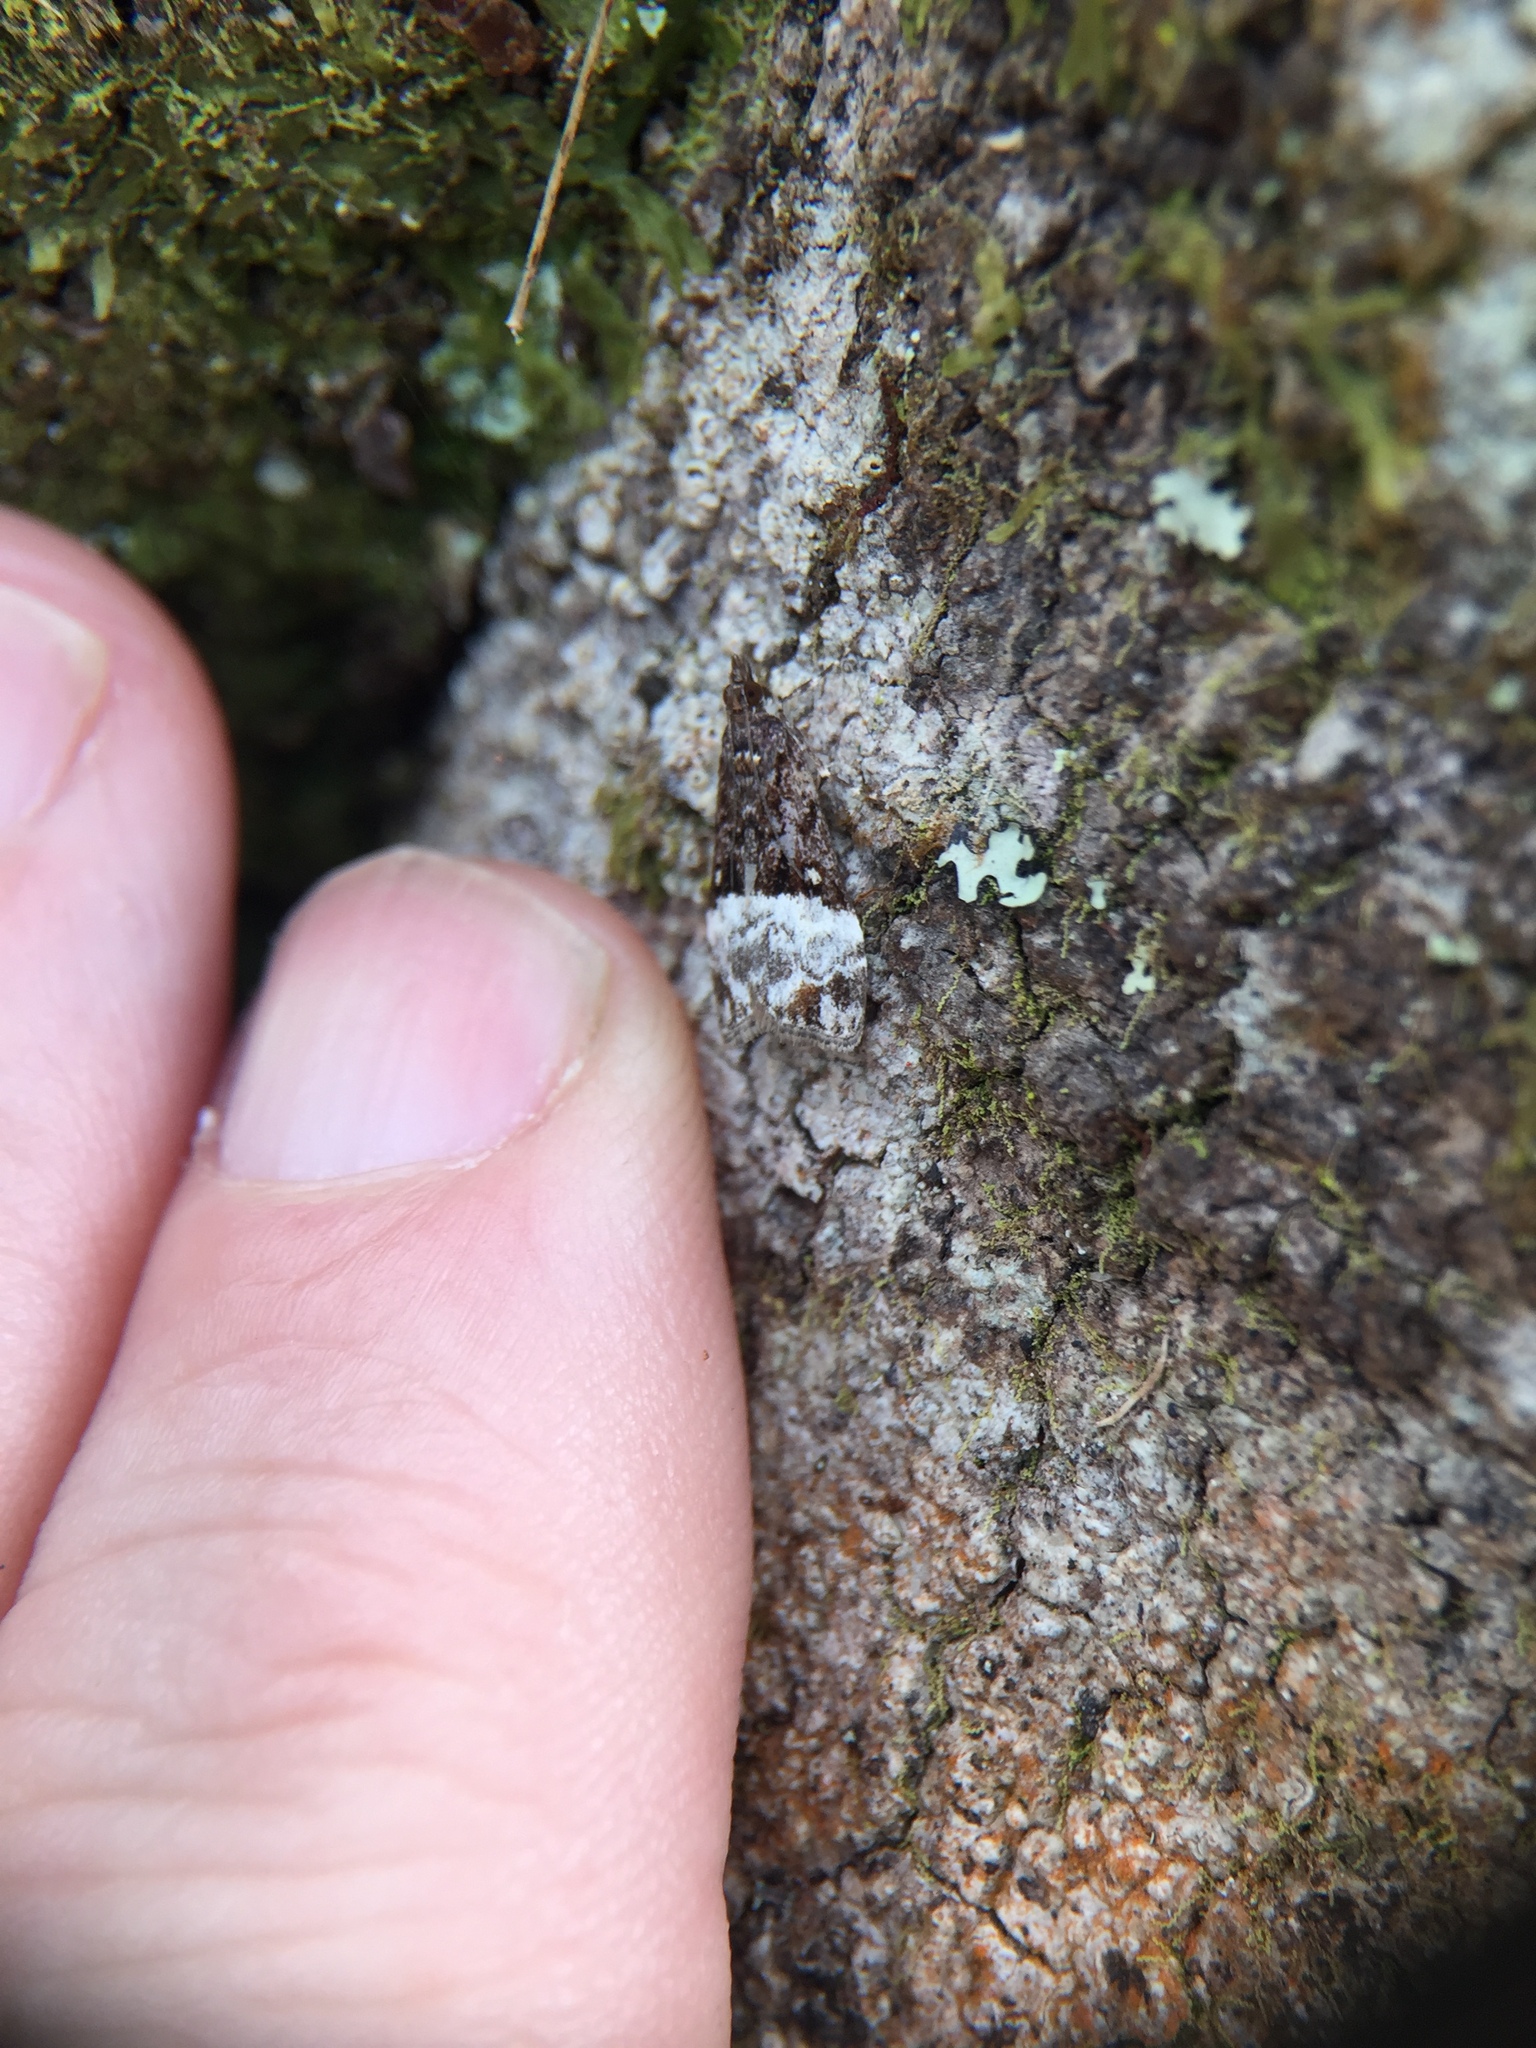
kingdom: Animalia
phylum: Arthropoda
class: Insecta
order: Lepidoptera
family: Crambidae
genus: Scoparia
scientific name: Scoparia minusculalis
